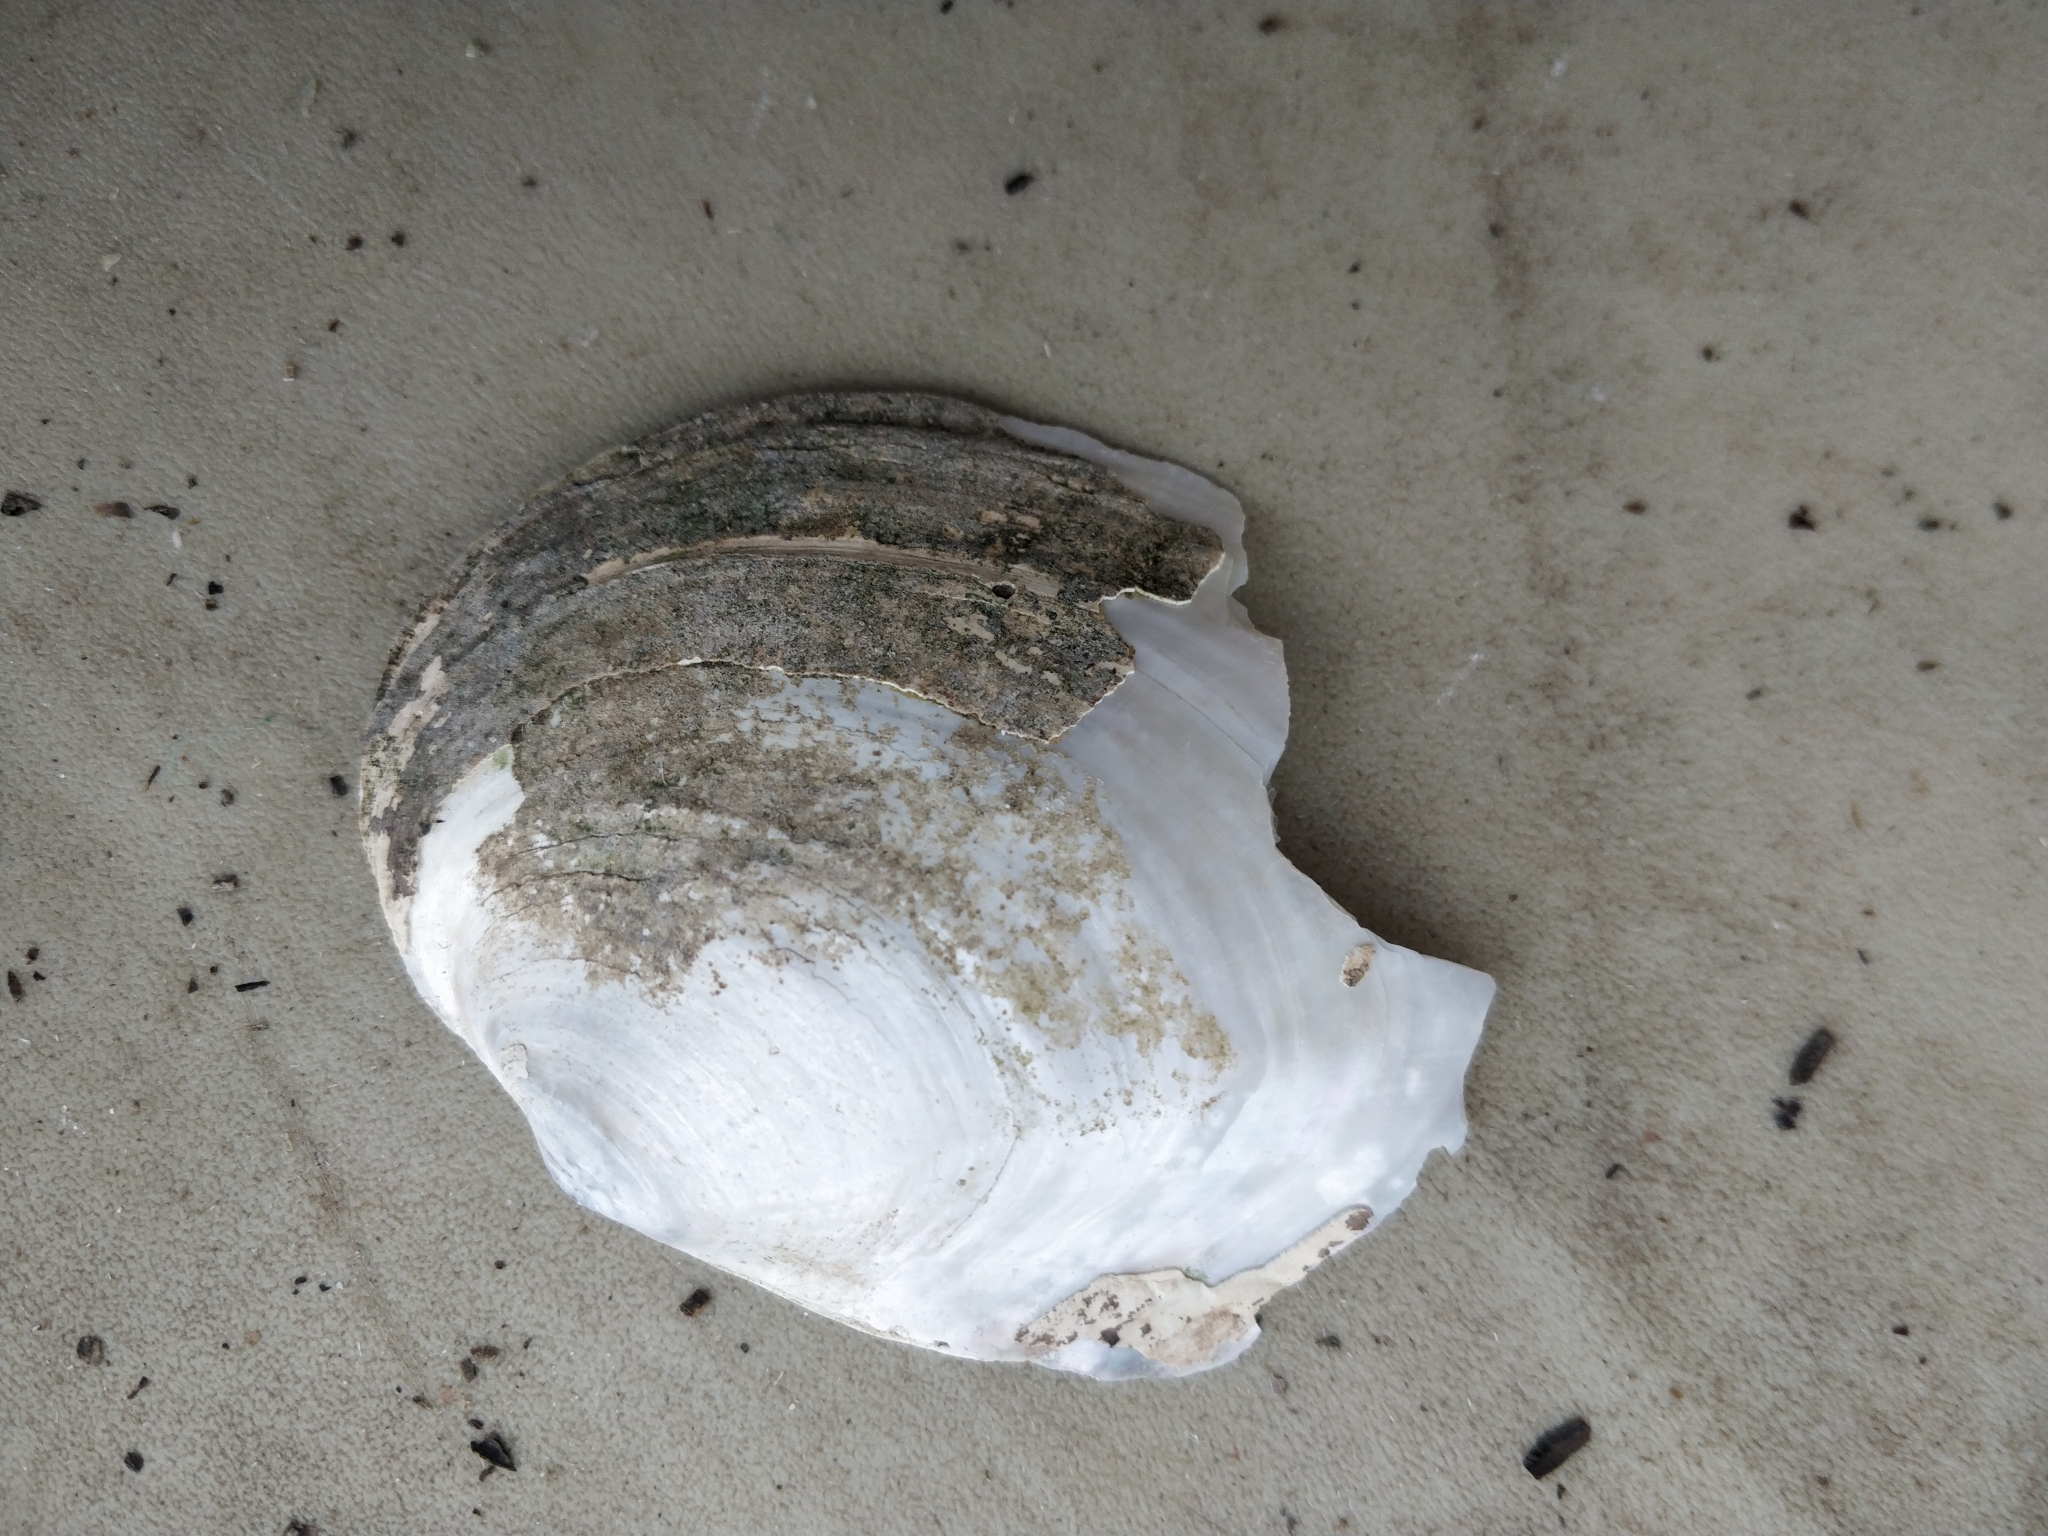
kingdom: Animalia
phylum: Mollusca
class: Bivalvia
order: Unionida
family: Unionidae
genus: Lasmigona
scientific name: Lasmigona complanata
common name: White heelsplitter
